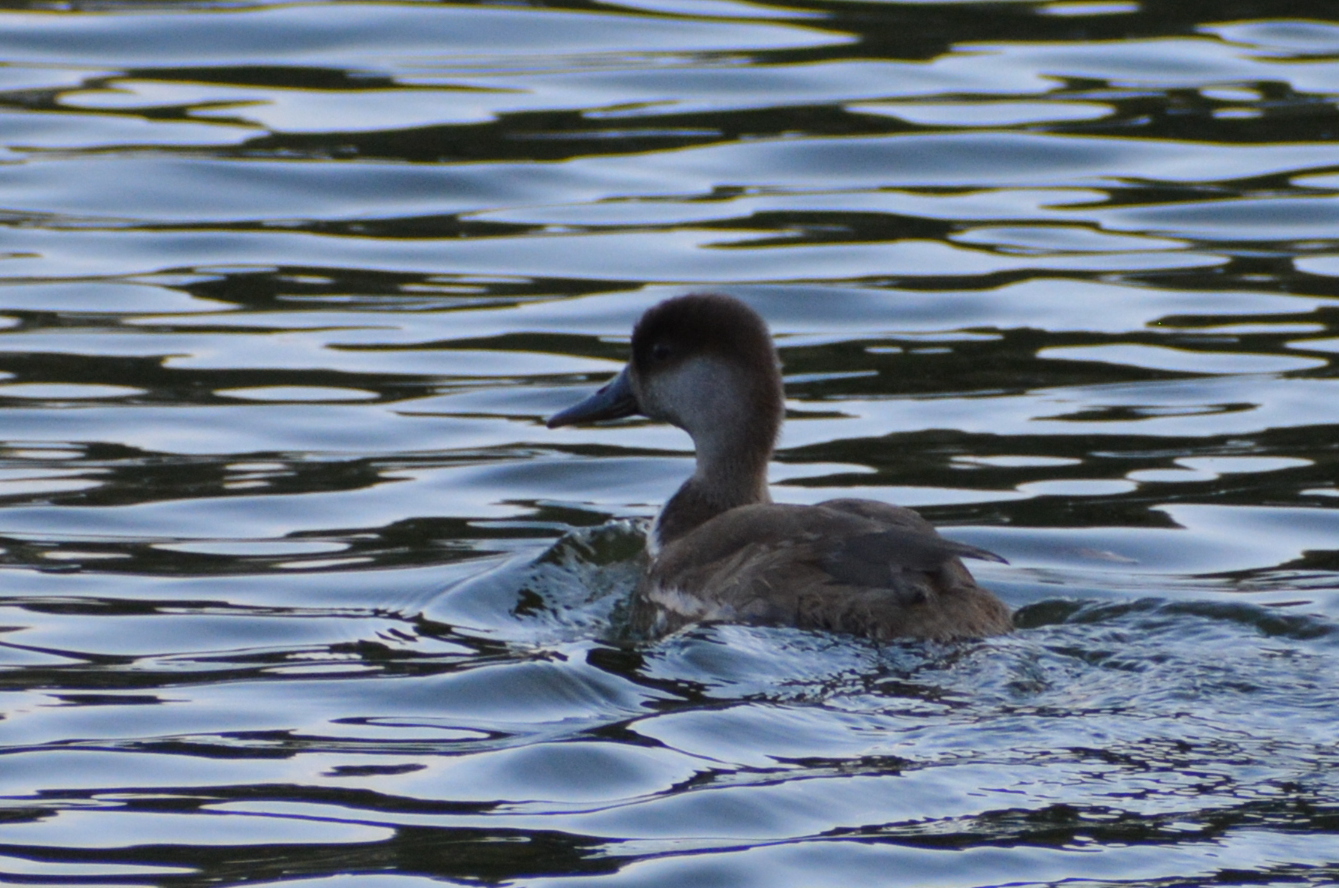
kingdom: Animalia
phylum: Chordata
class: Aves
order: Anseriformes
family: Anatidae
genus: Netta
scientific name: Netta rufina
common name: Red-crested pochard
